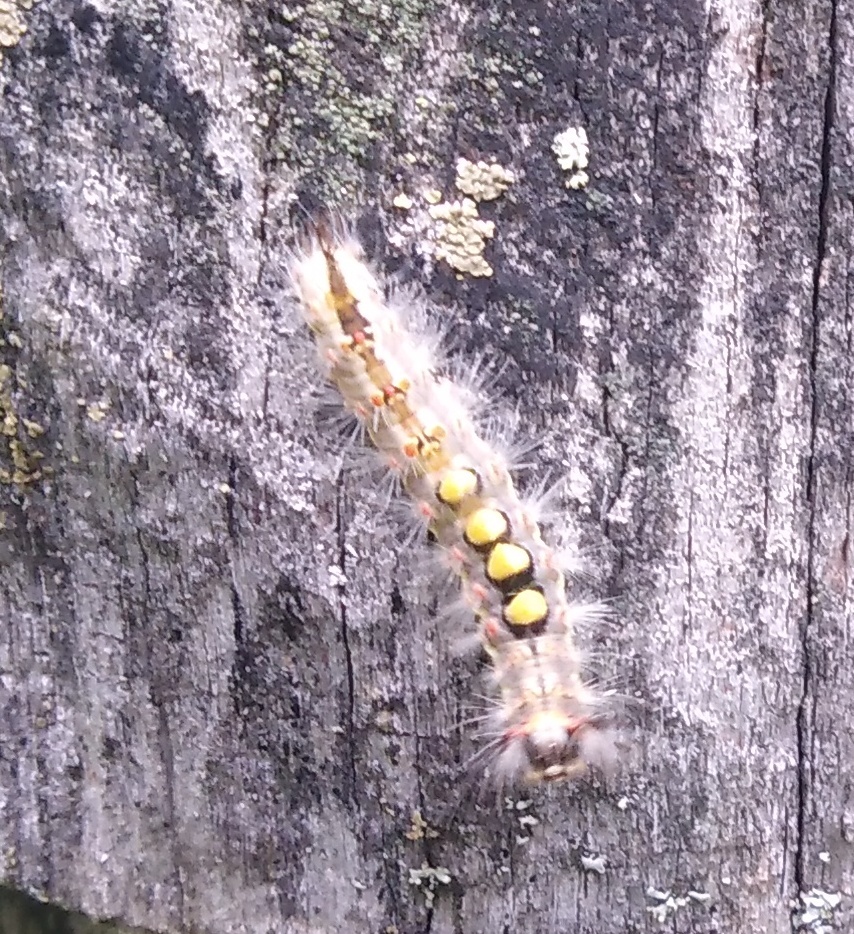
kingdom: Animalia
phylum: Arthropoda
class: Insecta
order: Lepidoptera
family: Erebidae
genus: Orgyia
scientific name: Orgyia antiqua
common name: Vapourer
